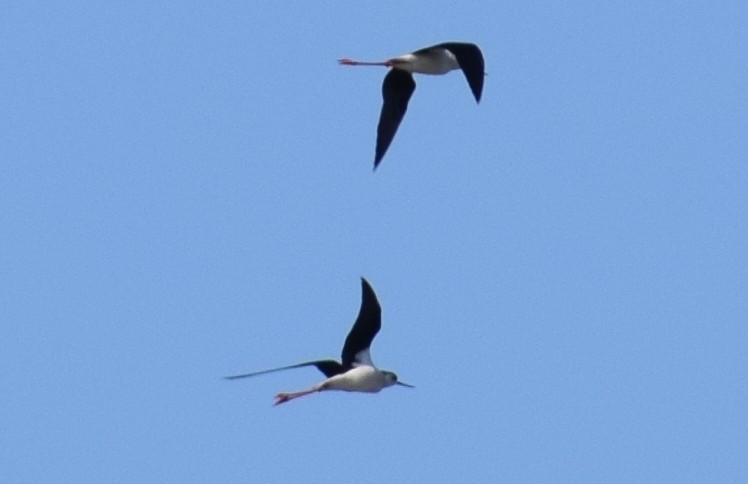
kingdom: Animalia
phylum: Chordata
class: Aves
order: Charadriiformes
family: Recurvirostridae
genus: Himantopus
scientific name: Himantopus himantopus
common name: Black-winged stilt
